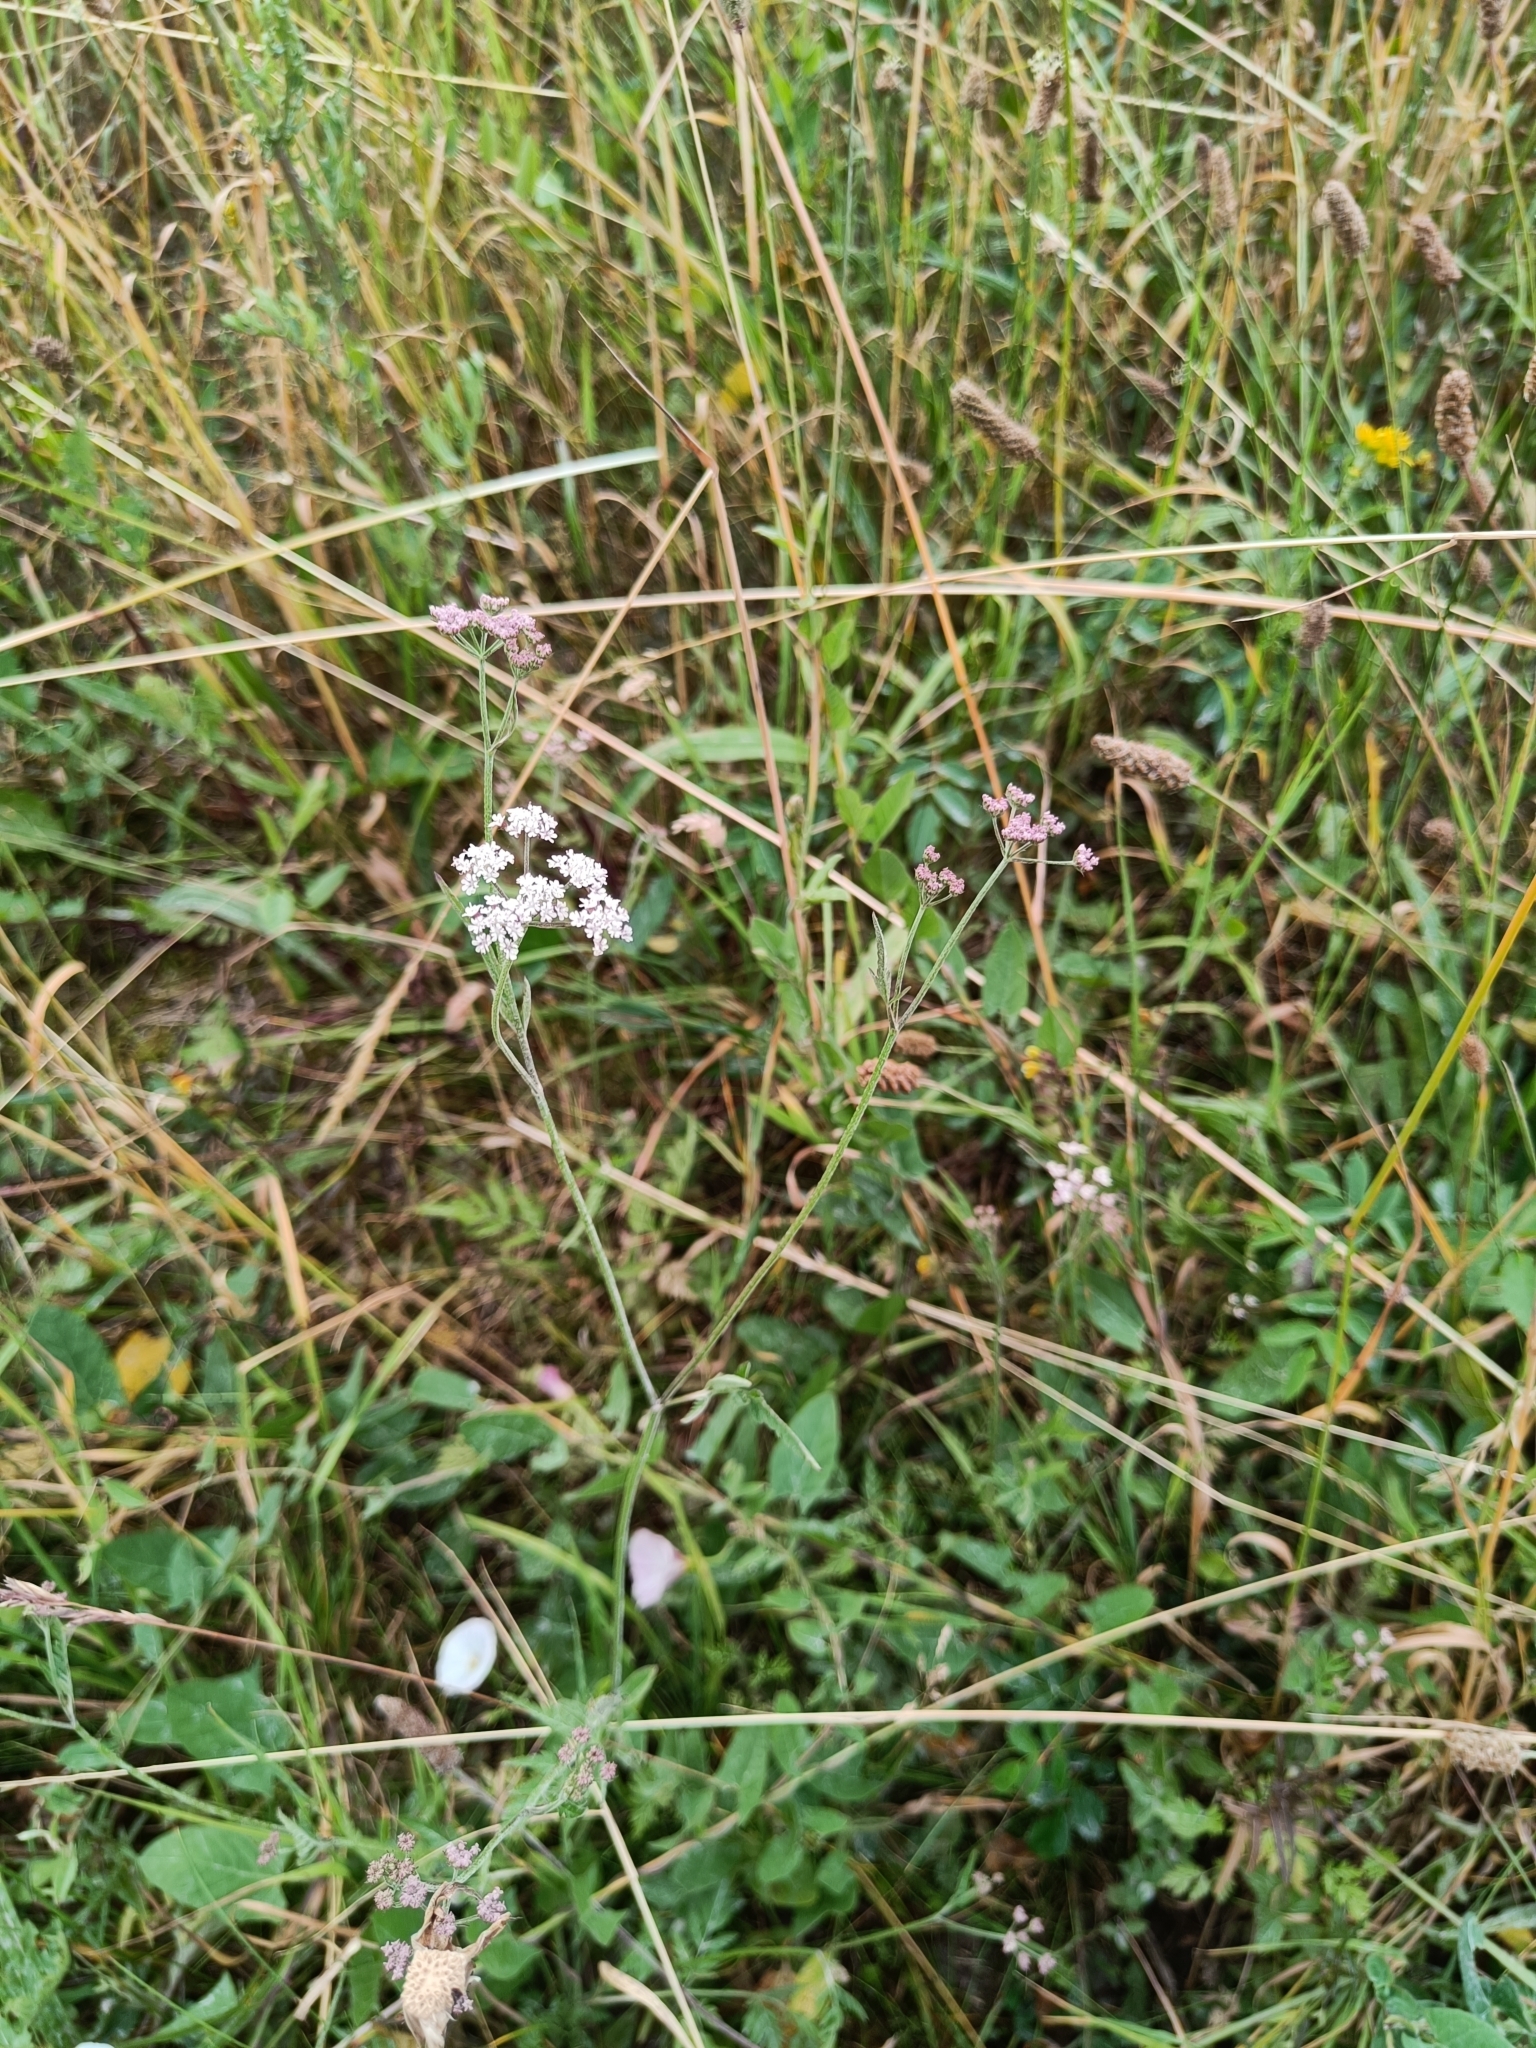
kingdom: Plantae
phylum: Tracheophyta
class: Magnoliopsida
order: Apiales
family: Apiaceae
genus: Torilis
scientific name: Torilis japonica
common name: Upright hedge-parsley
